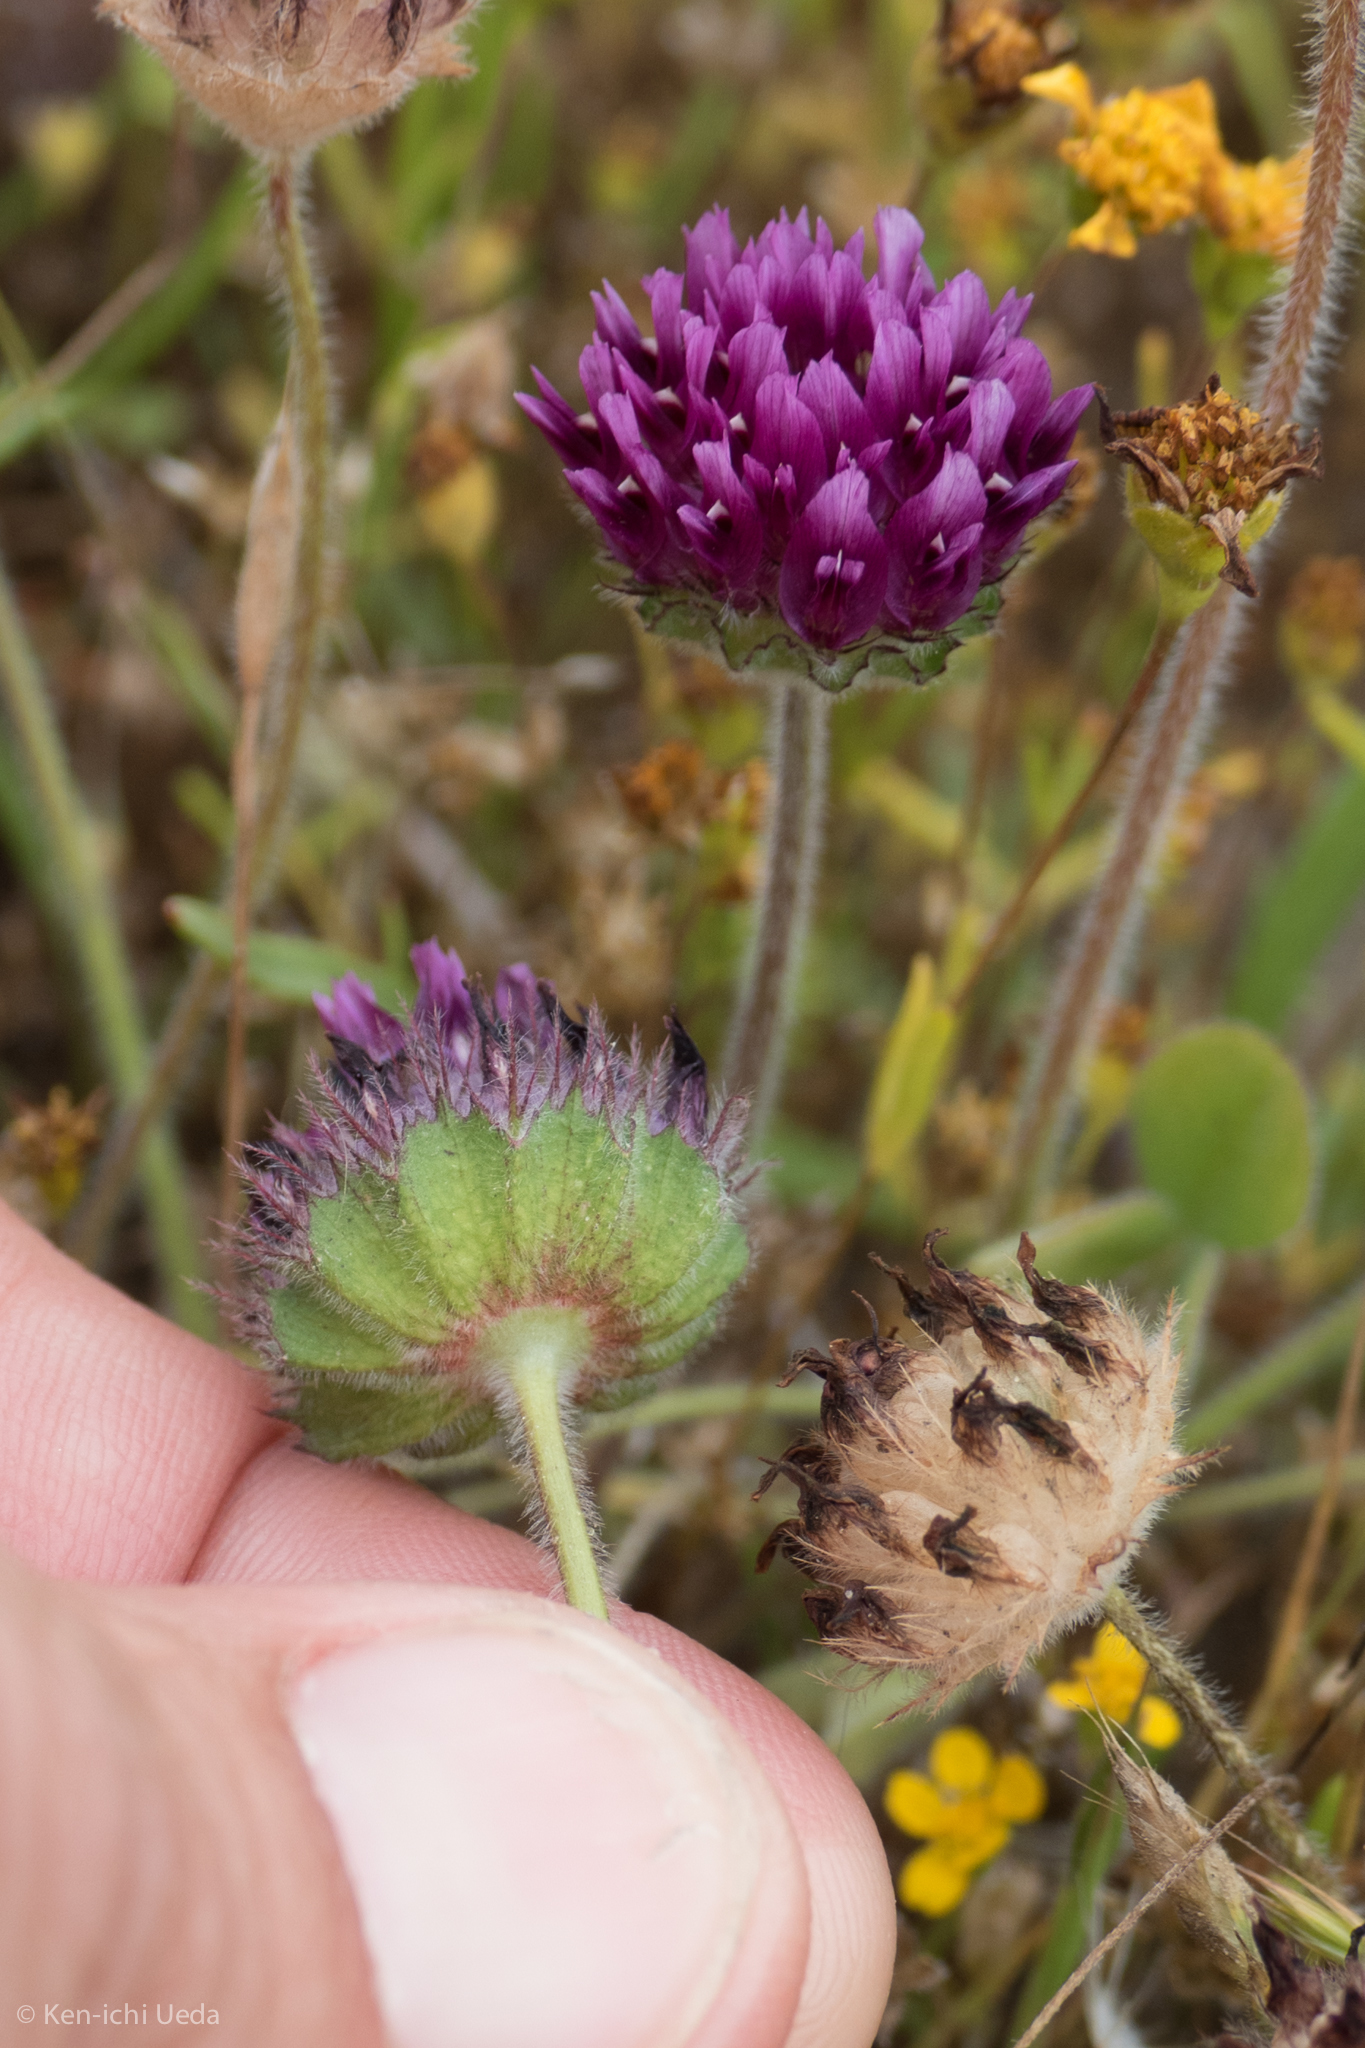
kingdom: Plantae
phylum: Tracheophyta
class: Magnoliopsida
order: Fabales
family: Fabaceae
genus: Trifolium
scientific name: Trifolium barbigerum
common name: Bearded clover
